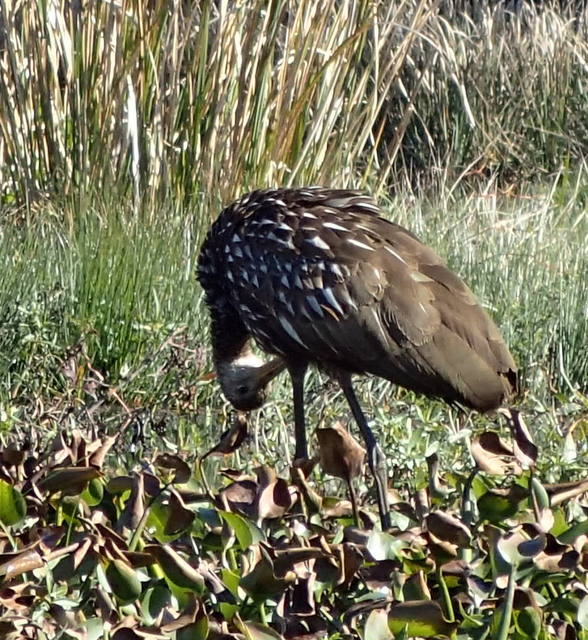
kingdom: Animalia
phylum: Chordata
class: Aves
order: Gruiformes
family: Aramidae
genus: Aramus
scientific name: Aramus guarauna
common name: Limpkin
